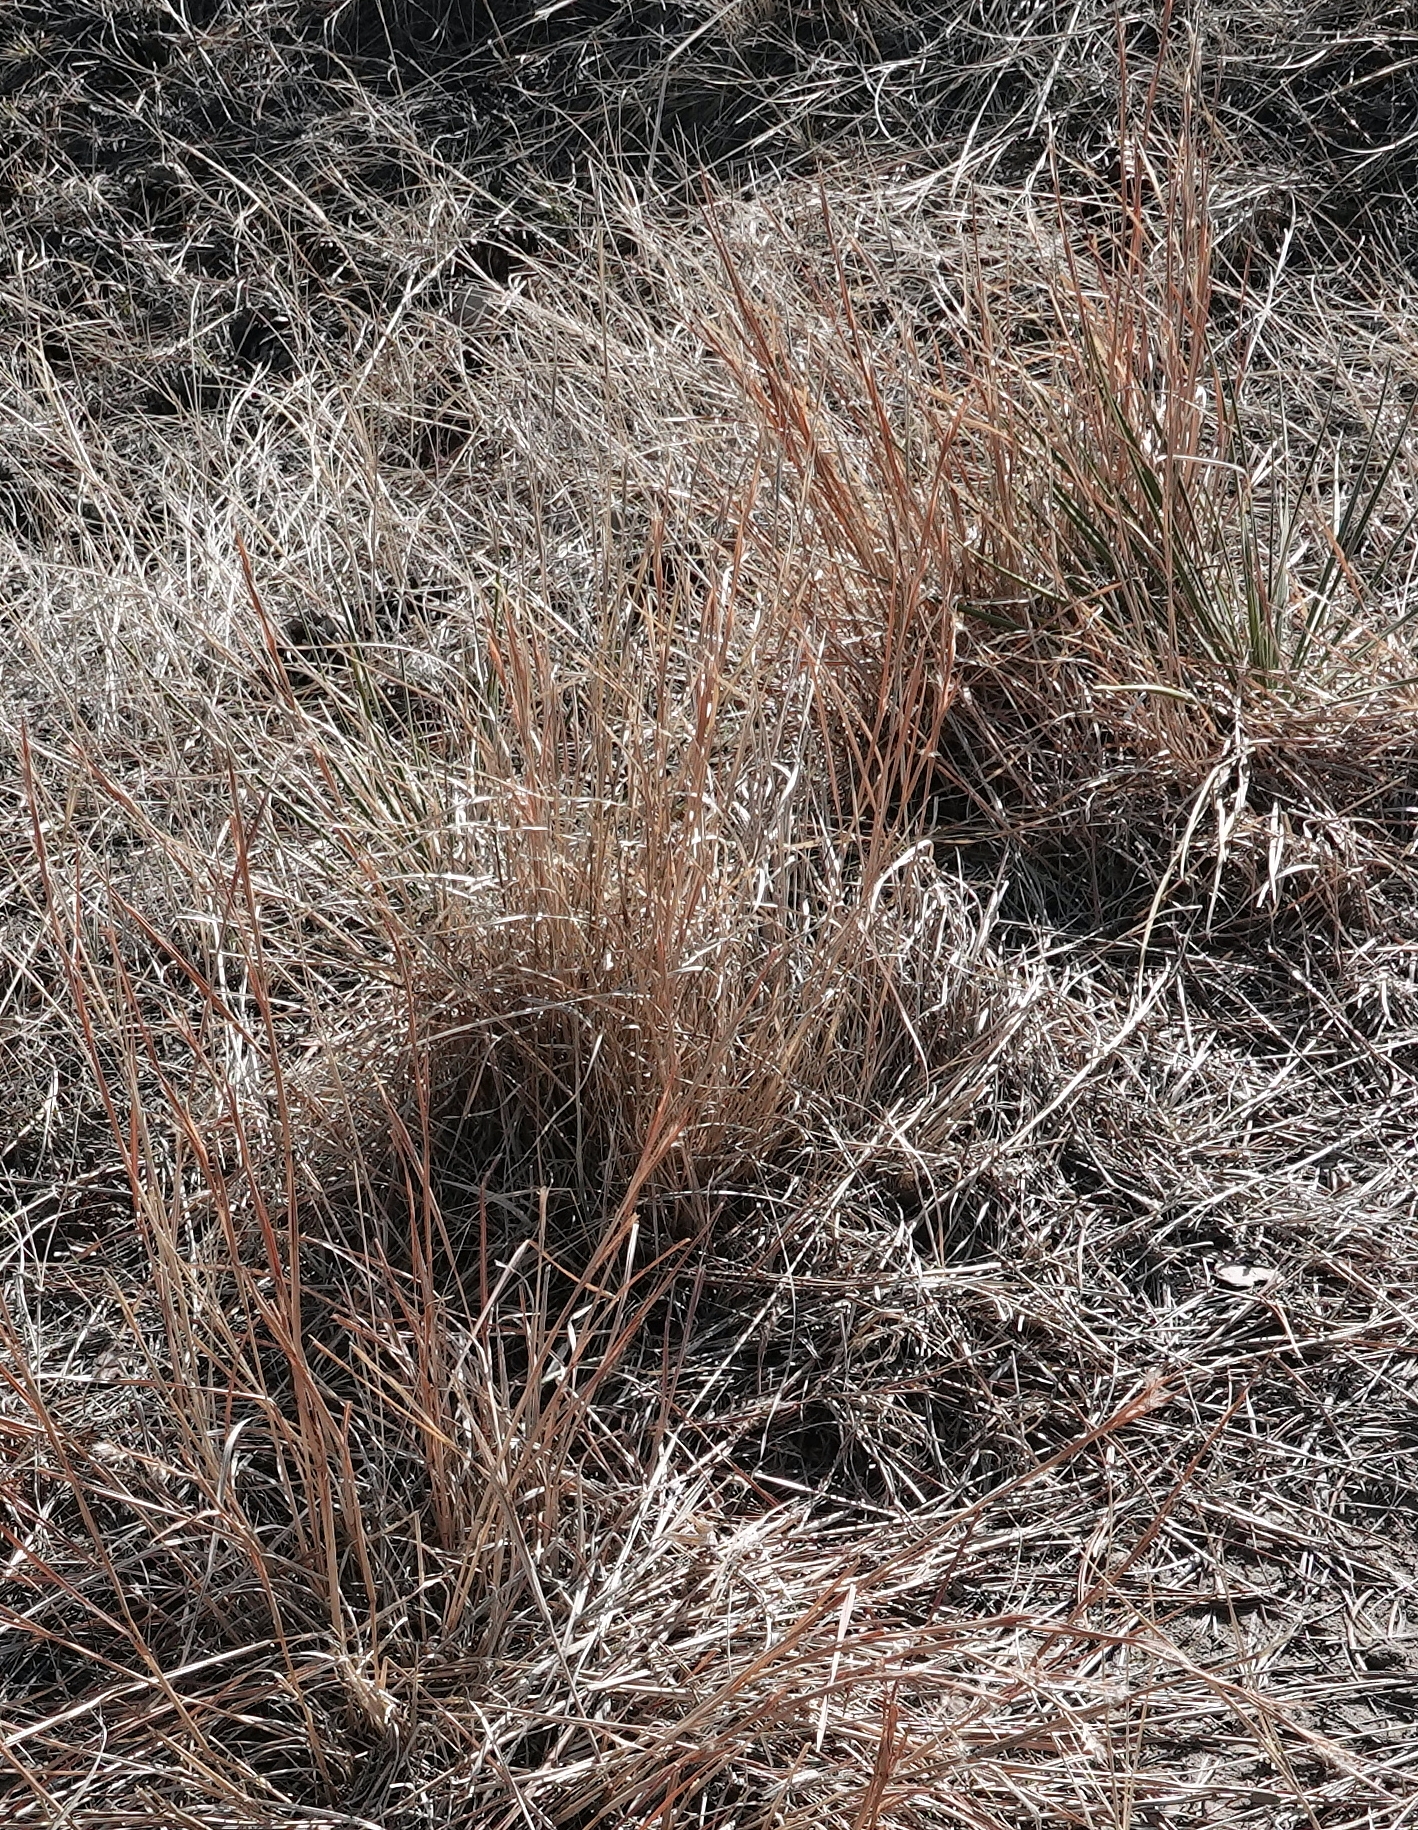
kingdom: Plantae
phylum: Tracheophyta
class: Liliopsida
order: Poales
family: Poaceae
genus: Schizachyrium
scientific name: Schizachyrium scoparium
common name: Little bluestem
